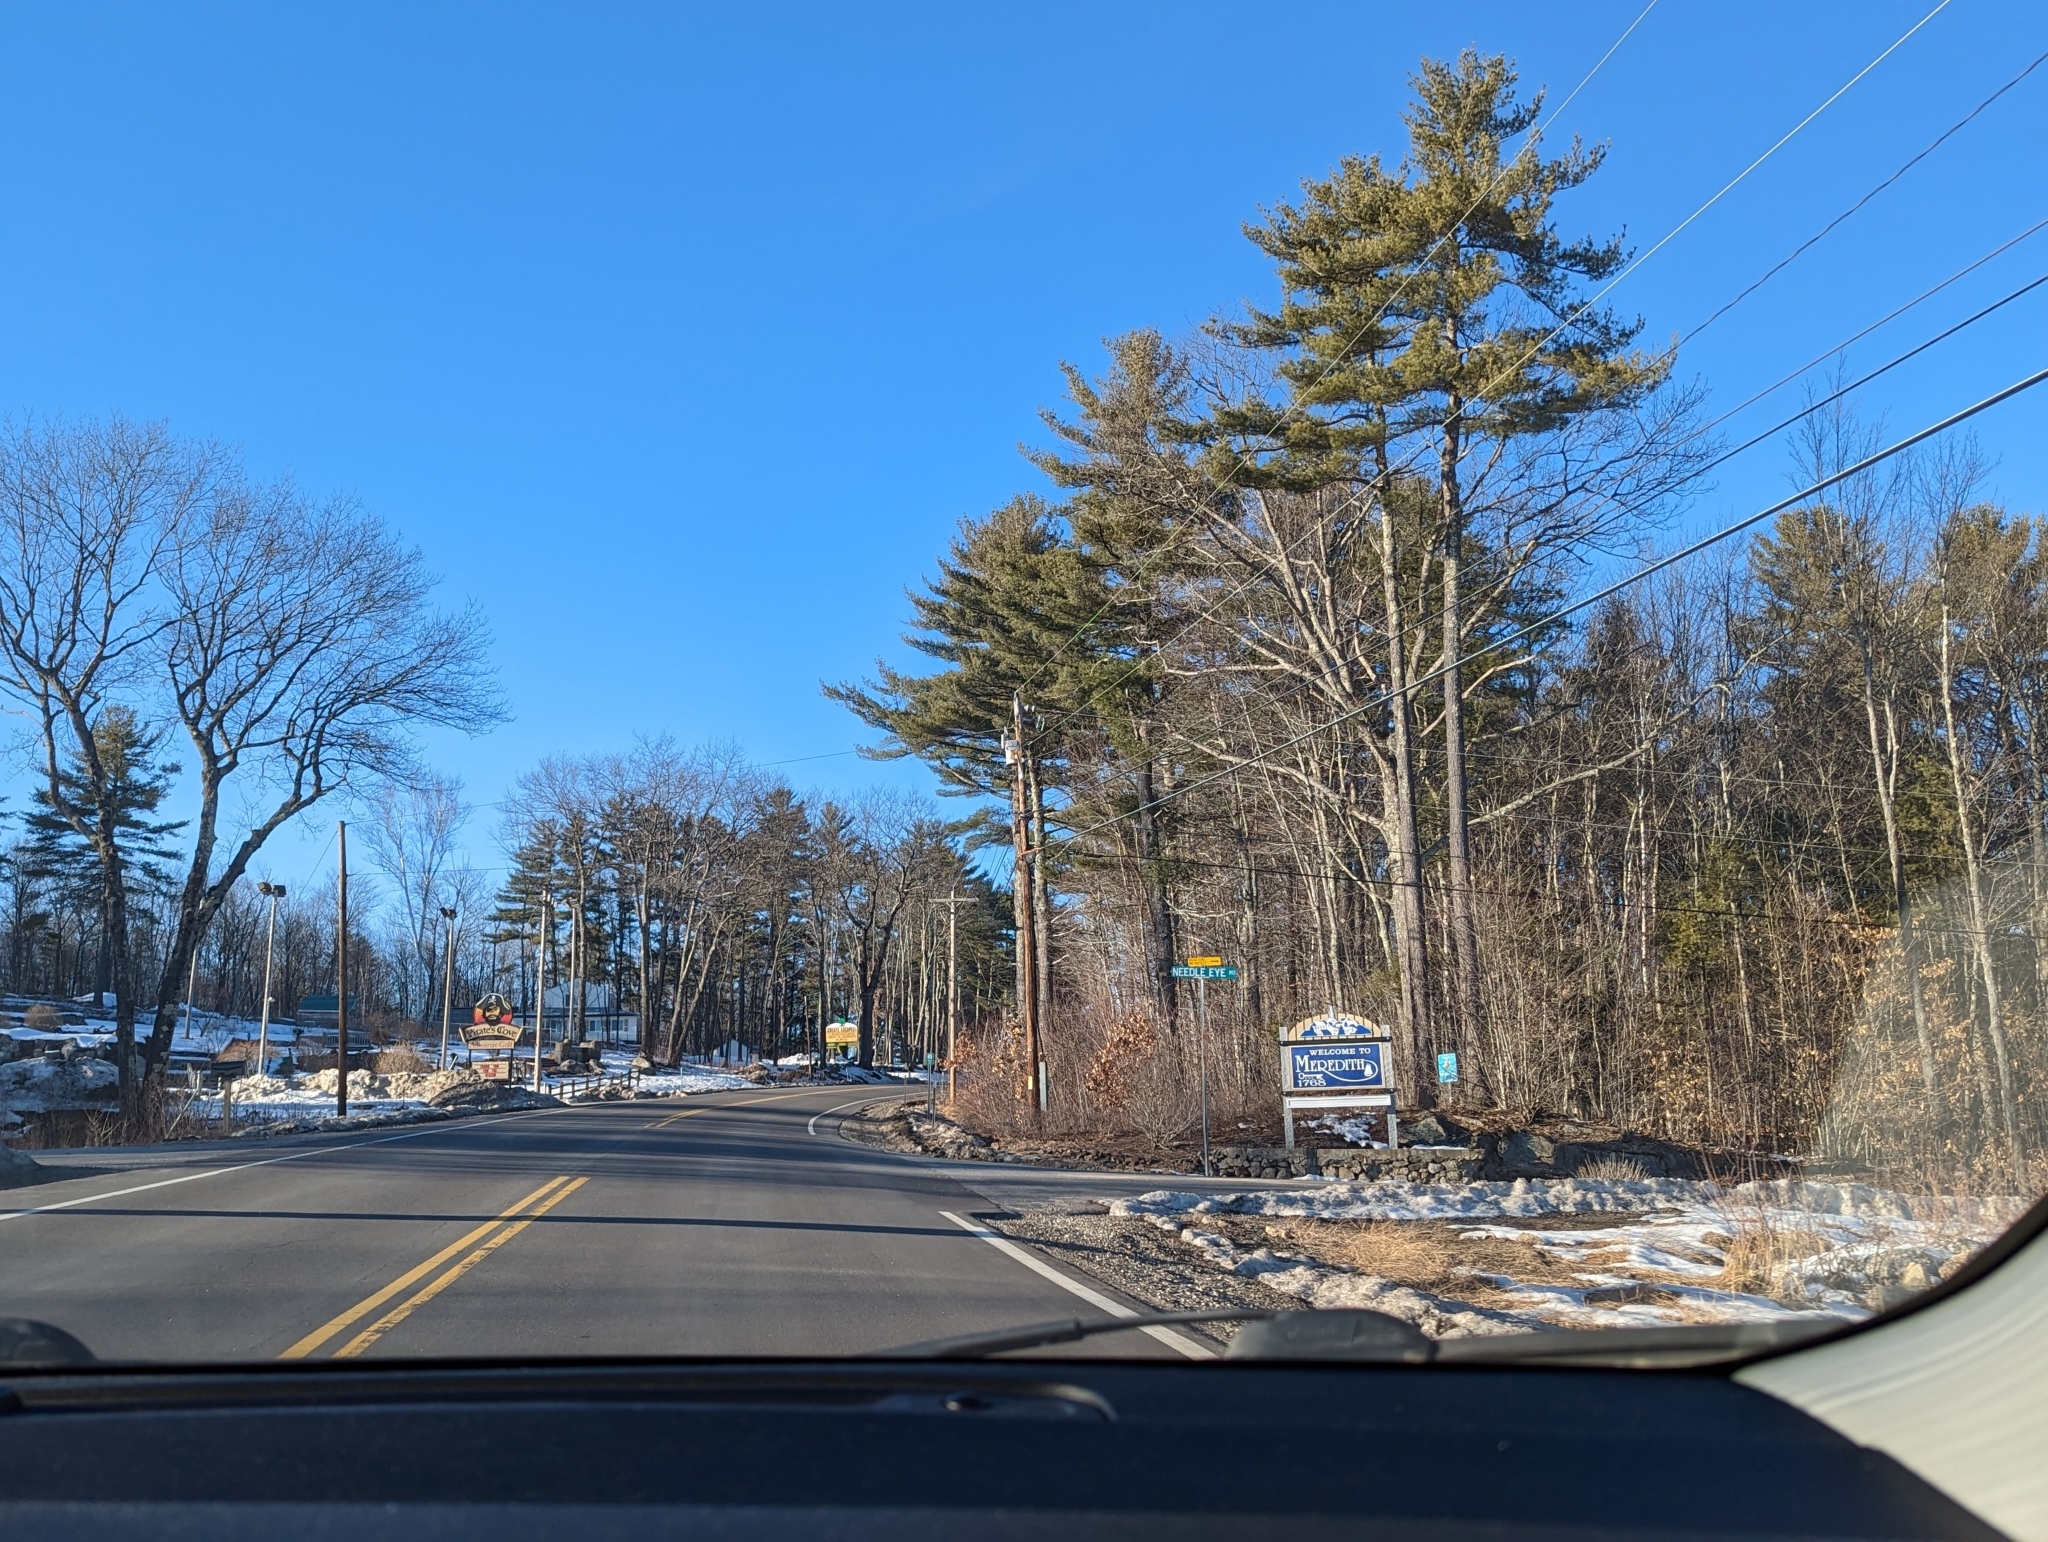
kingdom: Plantae
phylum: Tracheophyta
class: Pinopsida
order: Pinales
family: Pinaceae
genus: Pinus
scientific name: Pinus strobus
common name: Weymouth pine
